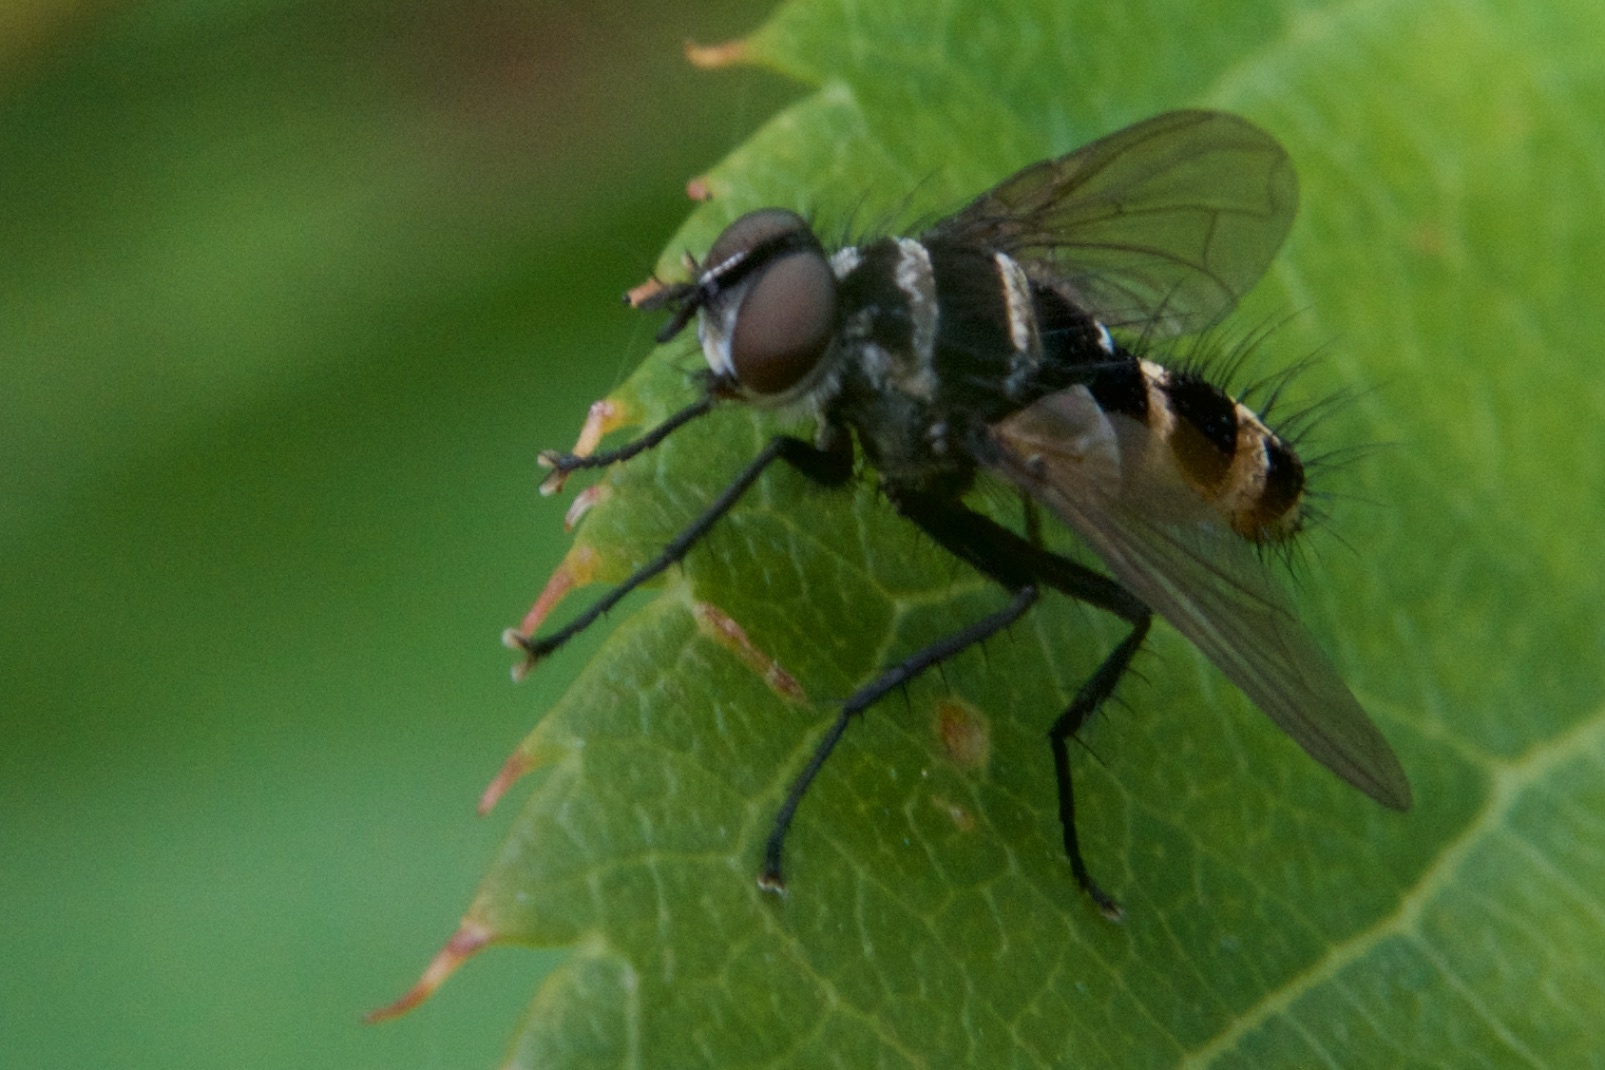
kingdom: Animalia
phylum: Arthropoda
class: Insecta
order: Diptera
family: Tachinidae
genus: Trigonospila
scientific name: Trigonospila brevifacies
